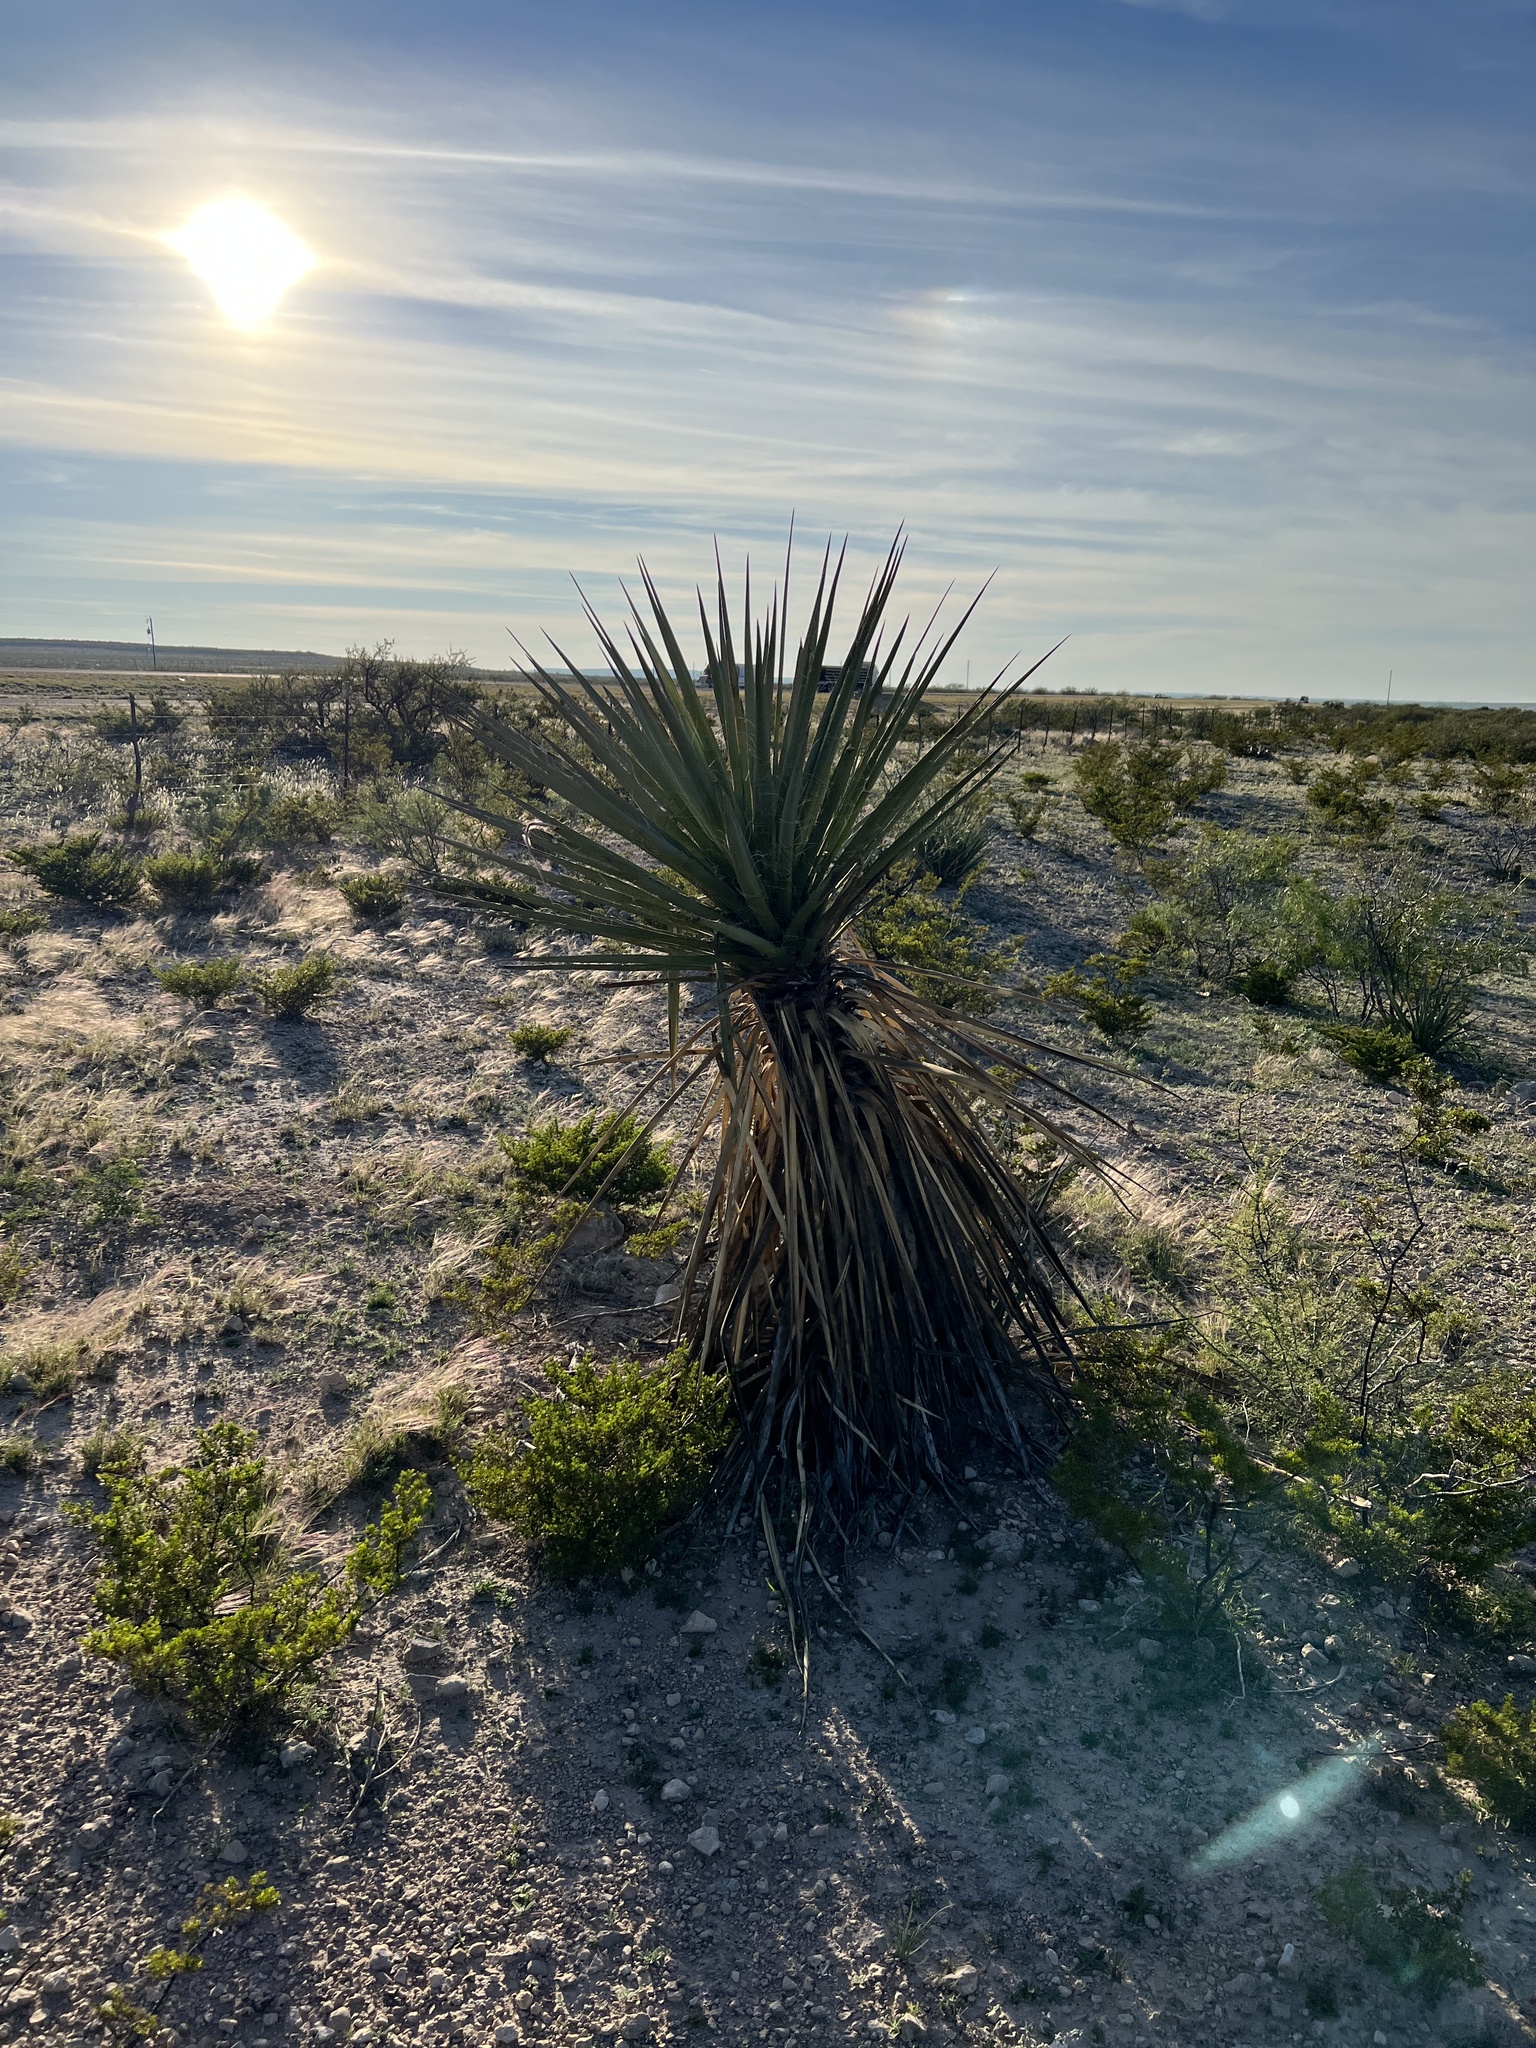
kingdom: Plantae
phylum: Tracheophyta
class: Liliopsida
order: Asparagales
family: Asparagaceae
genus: Yucca
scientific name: Yucca treculiana
